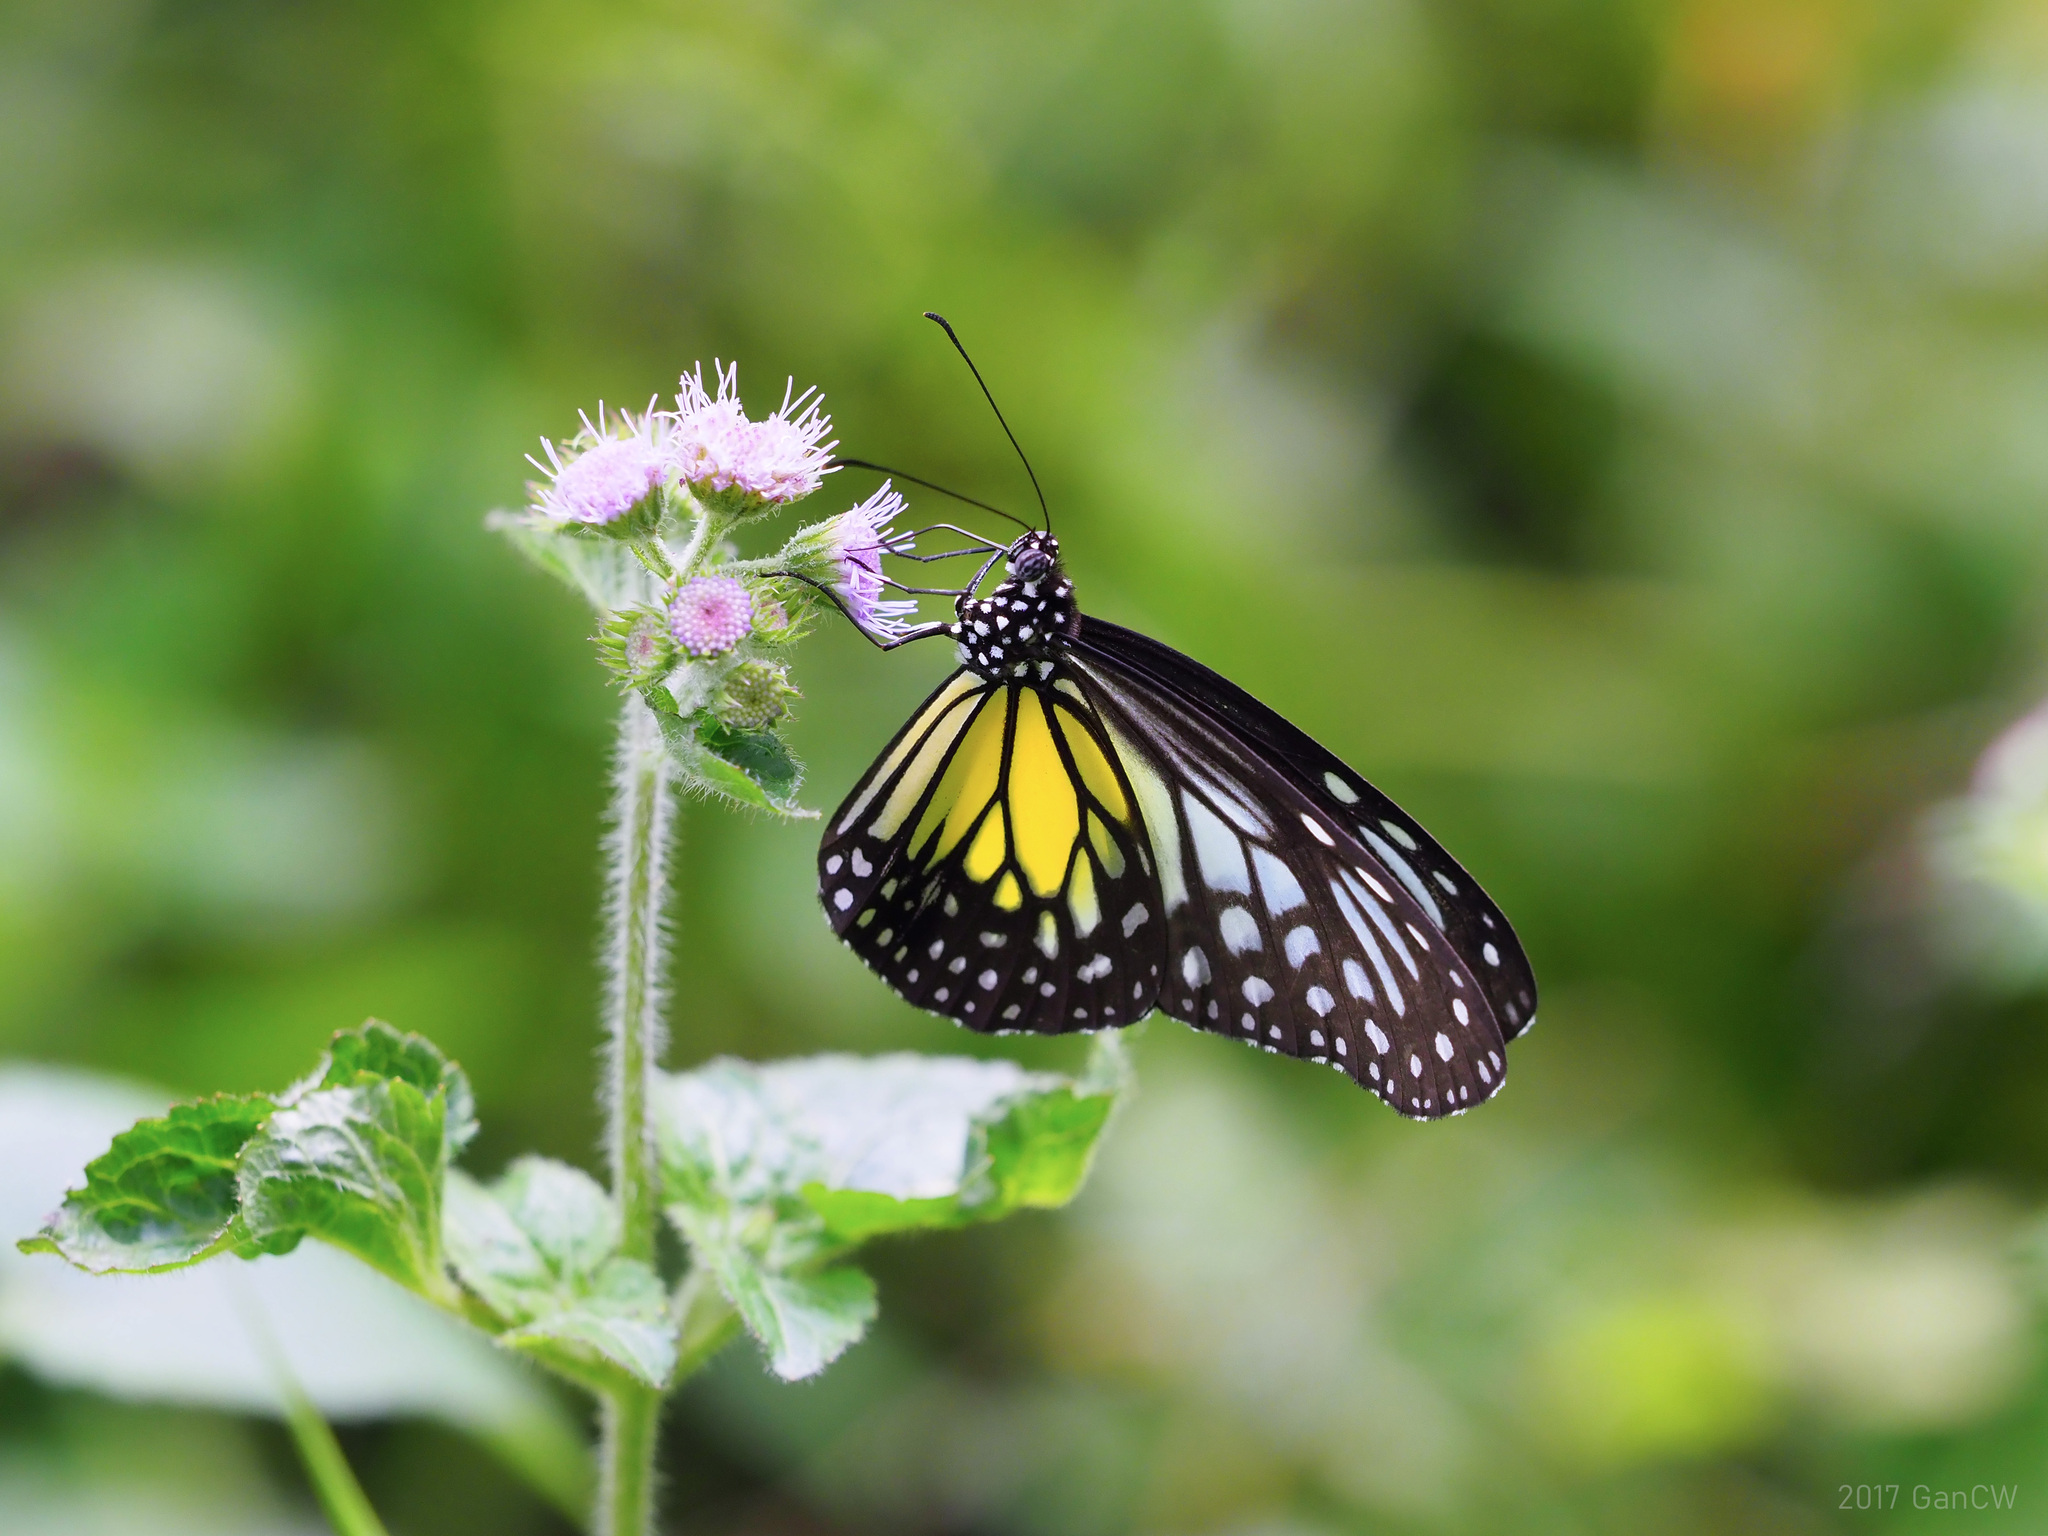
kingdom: Animalia
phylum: Arthropoda
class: Insecta
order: Lepidoptera
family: Nymphalidae
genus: Parantica
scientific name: Parantica aspasia
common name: Yellow glassy tiger
